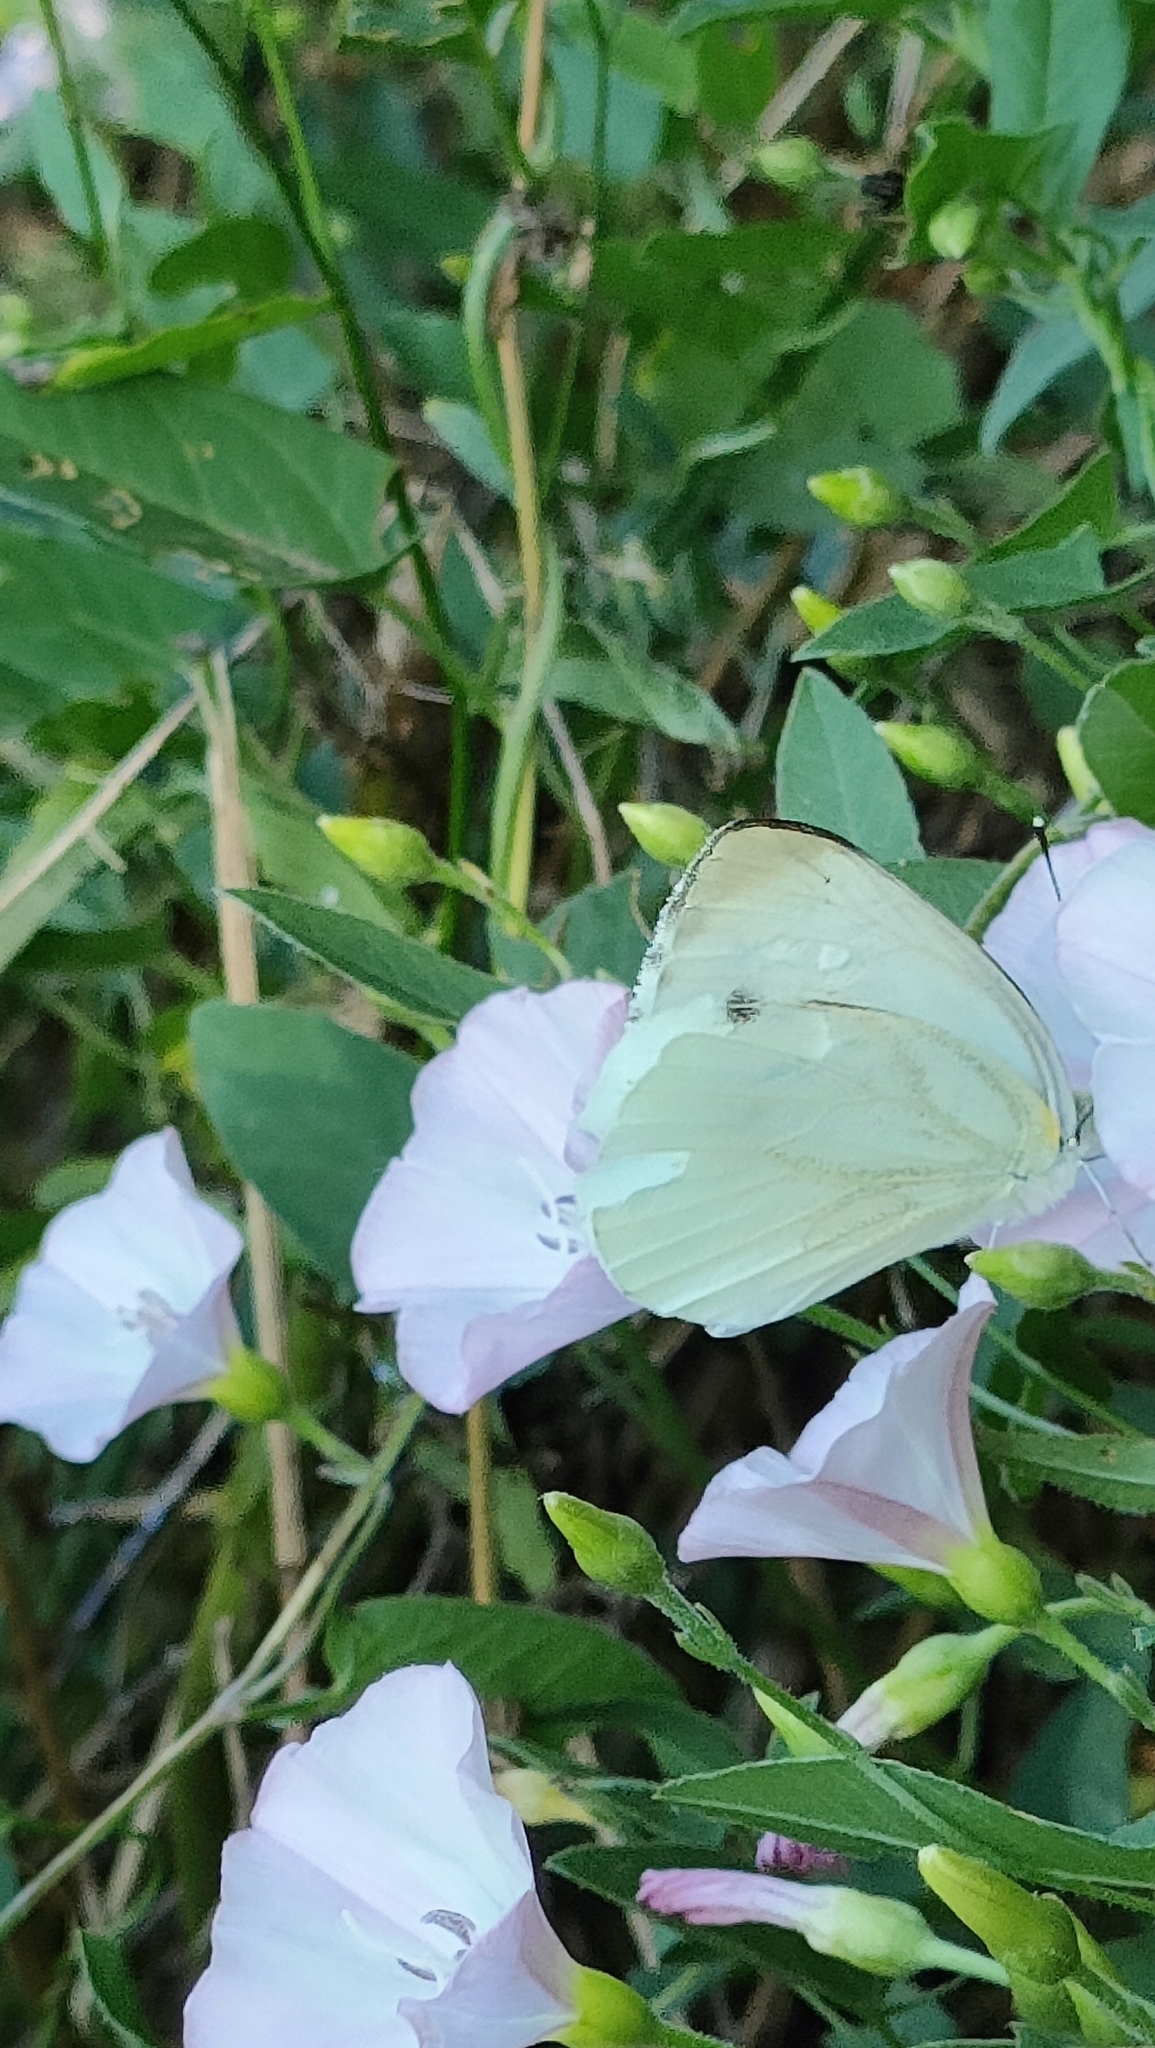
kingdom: Animalia
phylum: Arthropoda
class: Insecta
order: Lepidoptera
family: Pieridae
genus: Pieris
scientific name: Pieris napi
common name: Green-veined white
